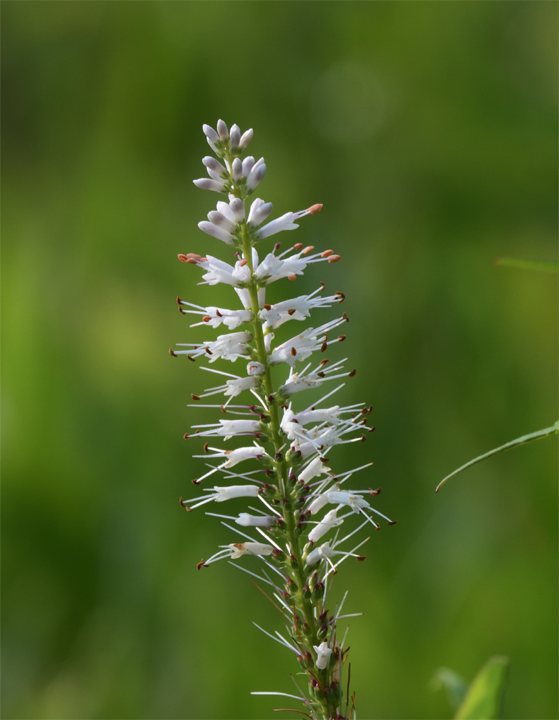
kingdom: Plantae
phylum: Tracheophyta
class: Magnoliopsida
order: Lamiales
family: Plantaginaceae
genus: Veronicastrum
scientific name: Veronicastrum virginicum
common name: Blackroot
